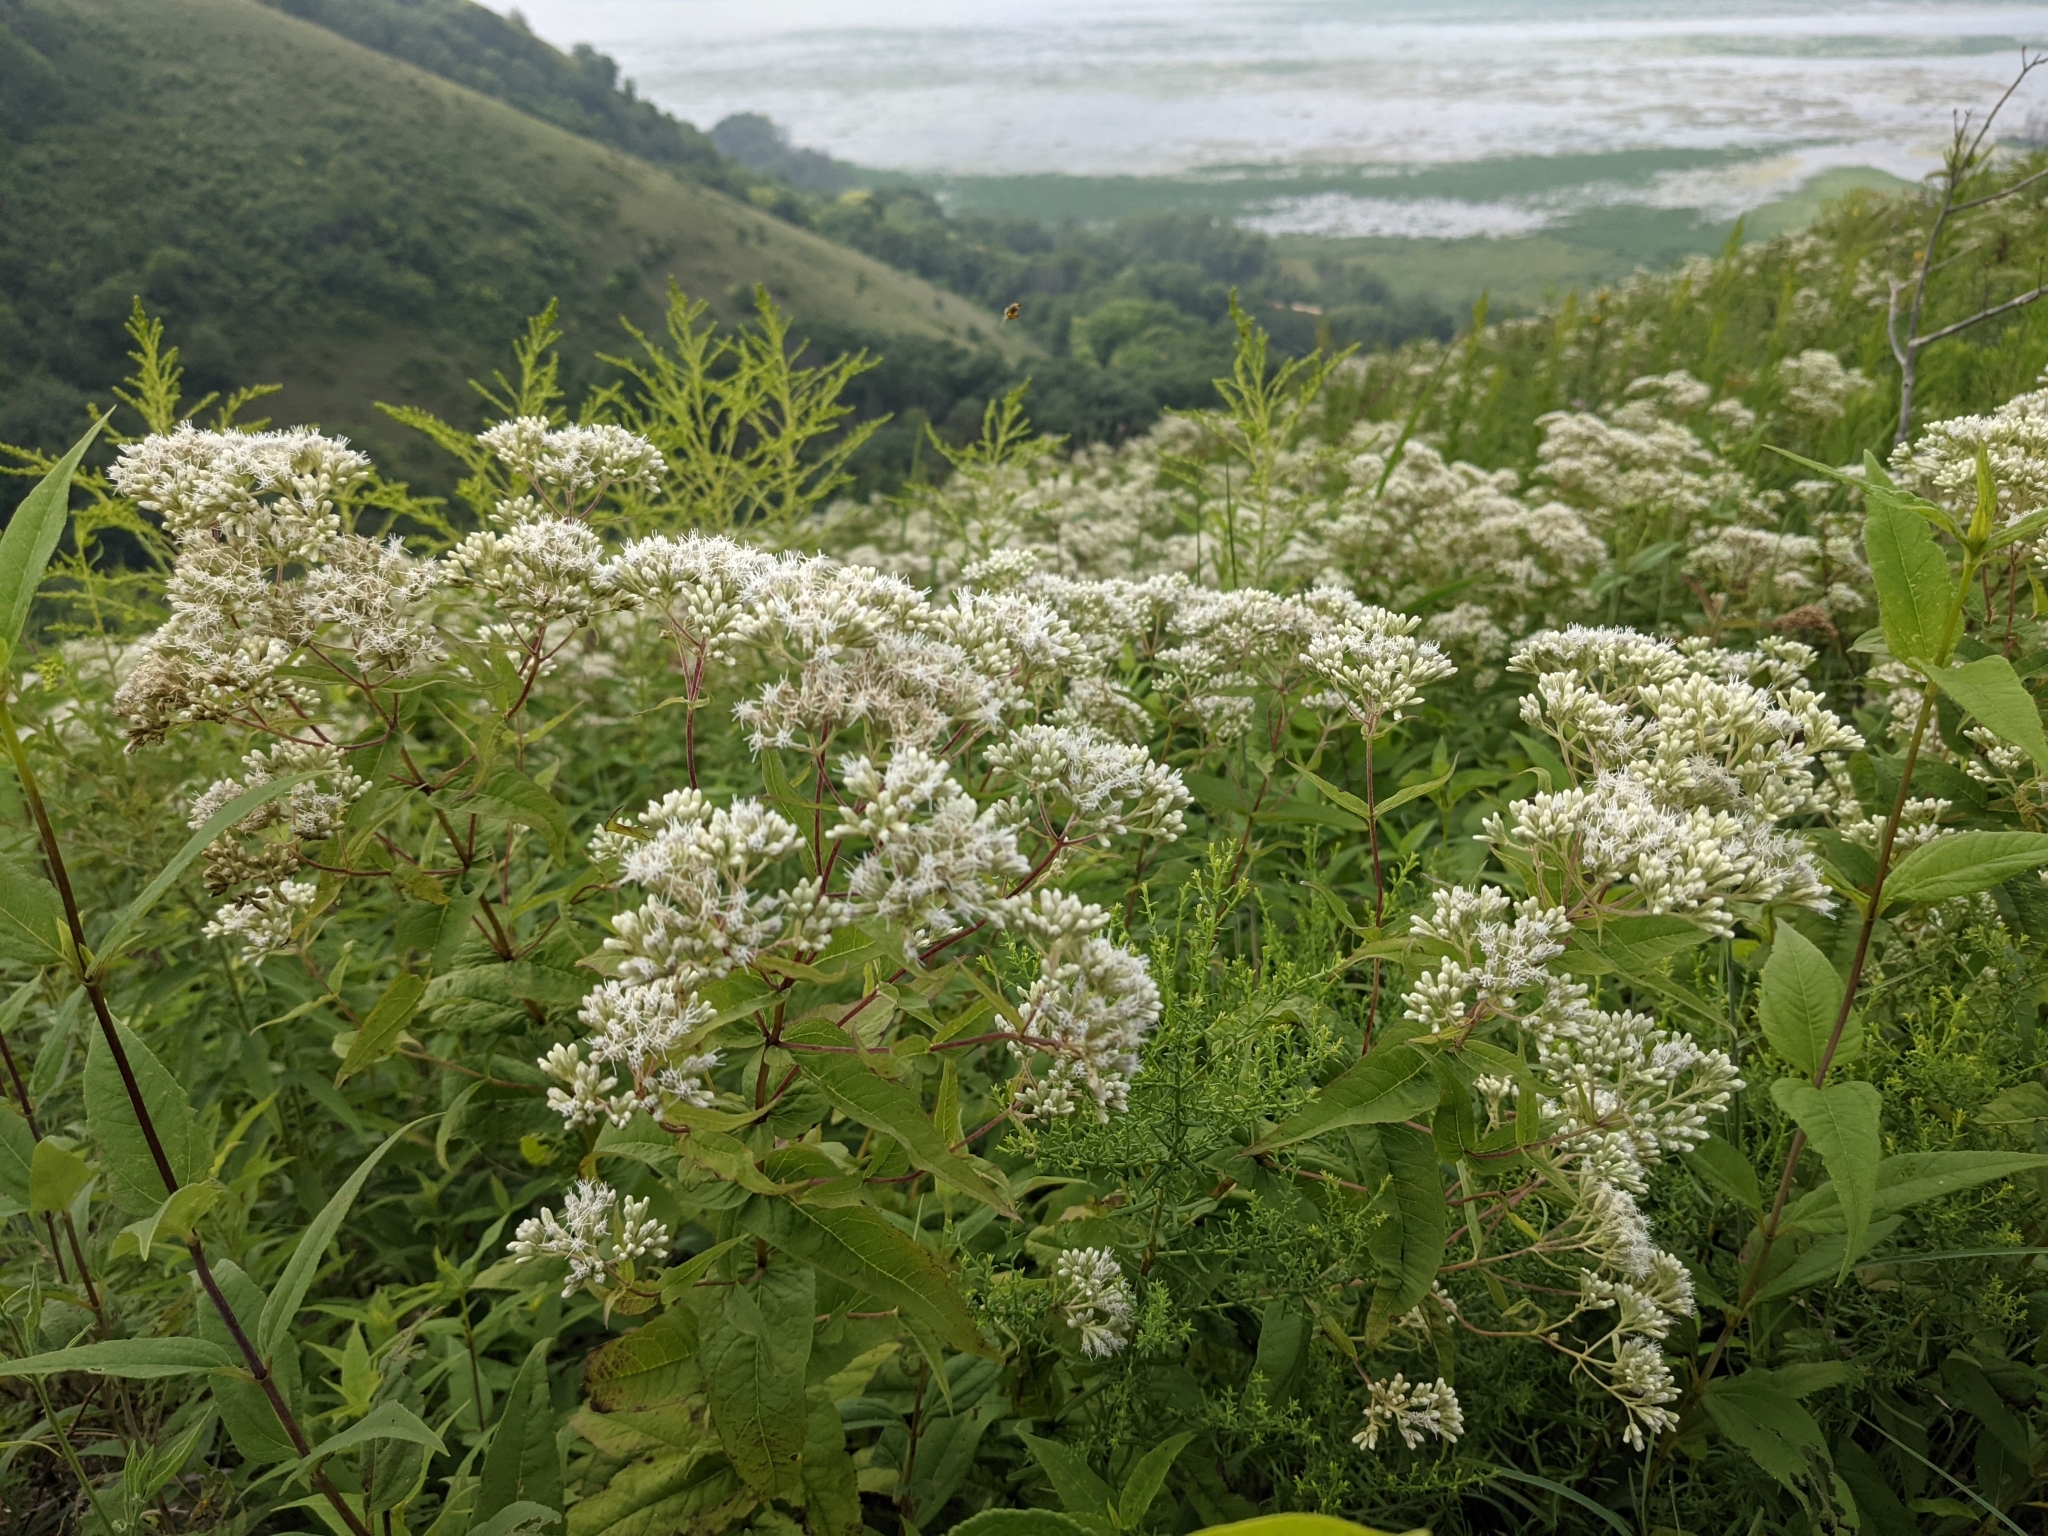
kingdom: Plantae
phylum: Tracheophyta
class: Magnoliopsida
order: Asterales
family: Asteraceae
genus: Eupatorium
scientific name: Eupatorium sessilifolium
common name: Upland boneset
